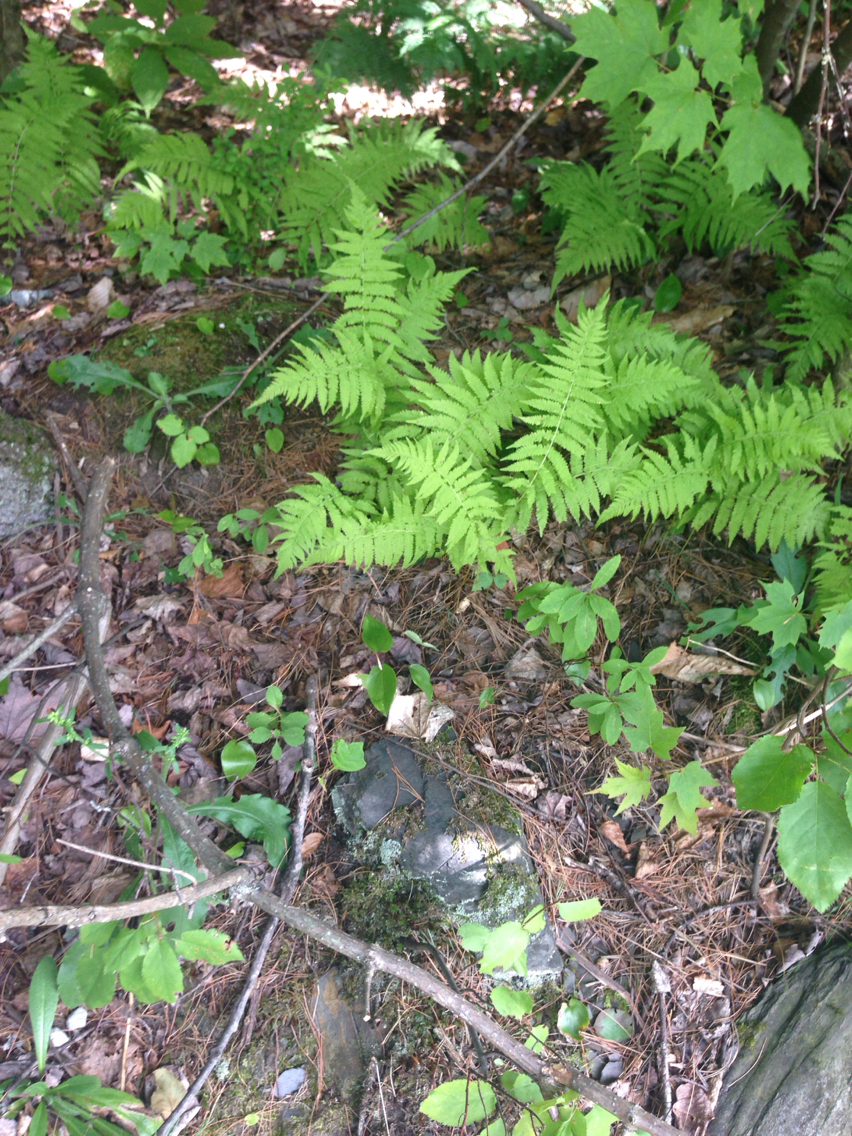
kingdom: Plantae
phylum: Tracheophyta
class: Polypodiopsida
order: Polypodiales
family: Thelypteridaceae
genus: Amauropelta
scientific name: Amauropelta noveboracensis
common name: New york fern
